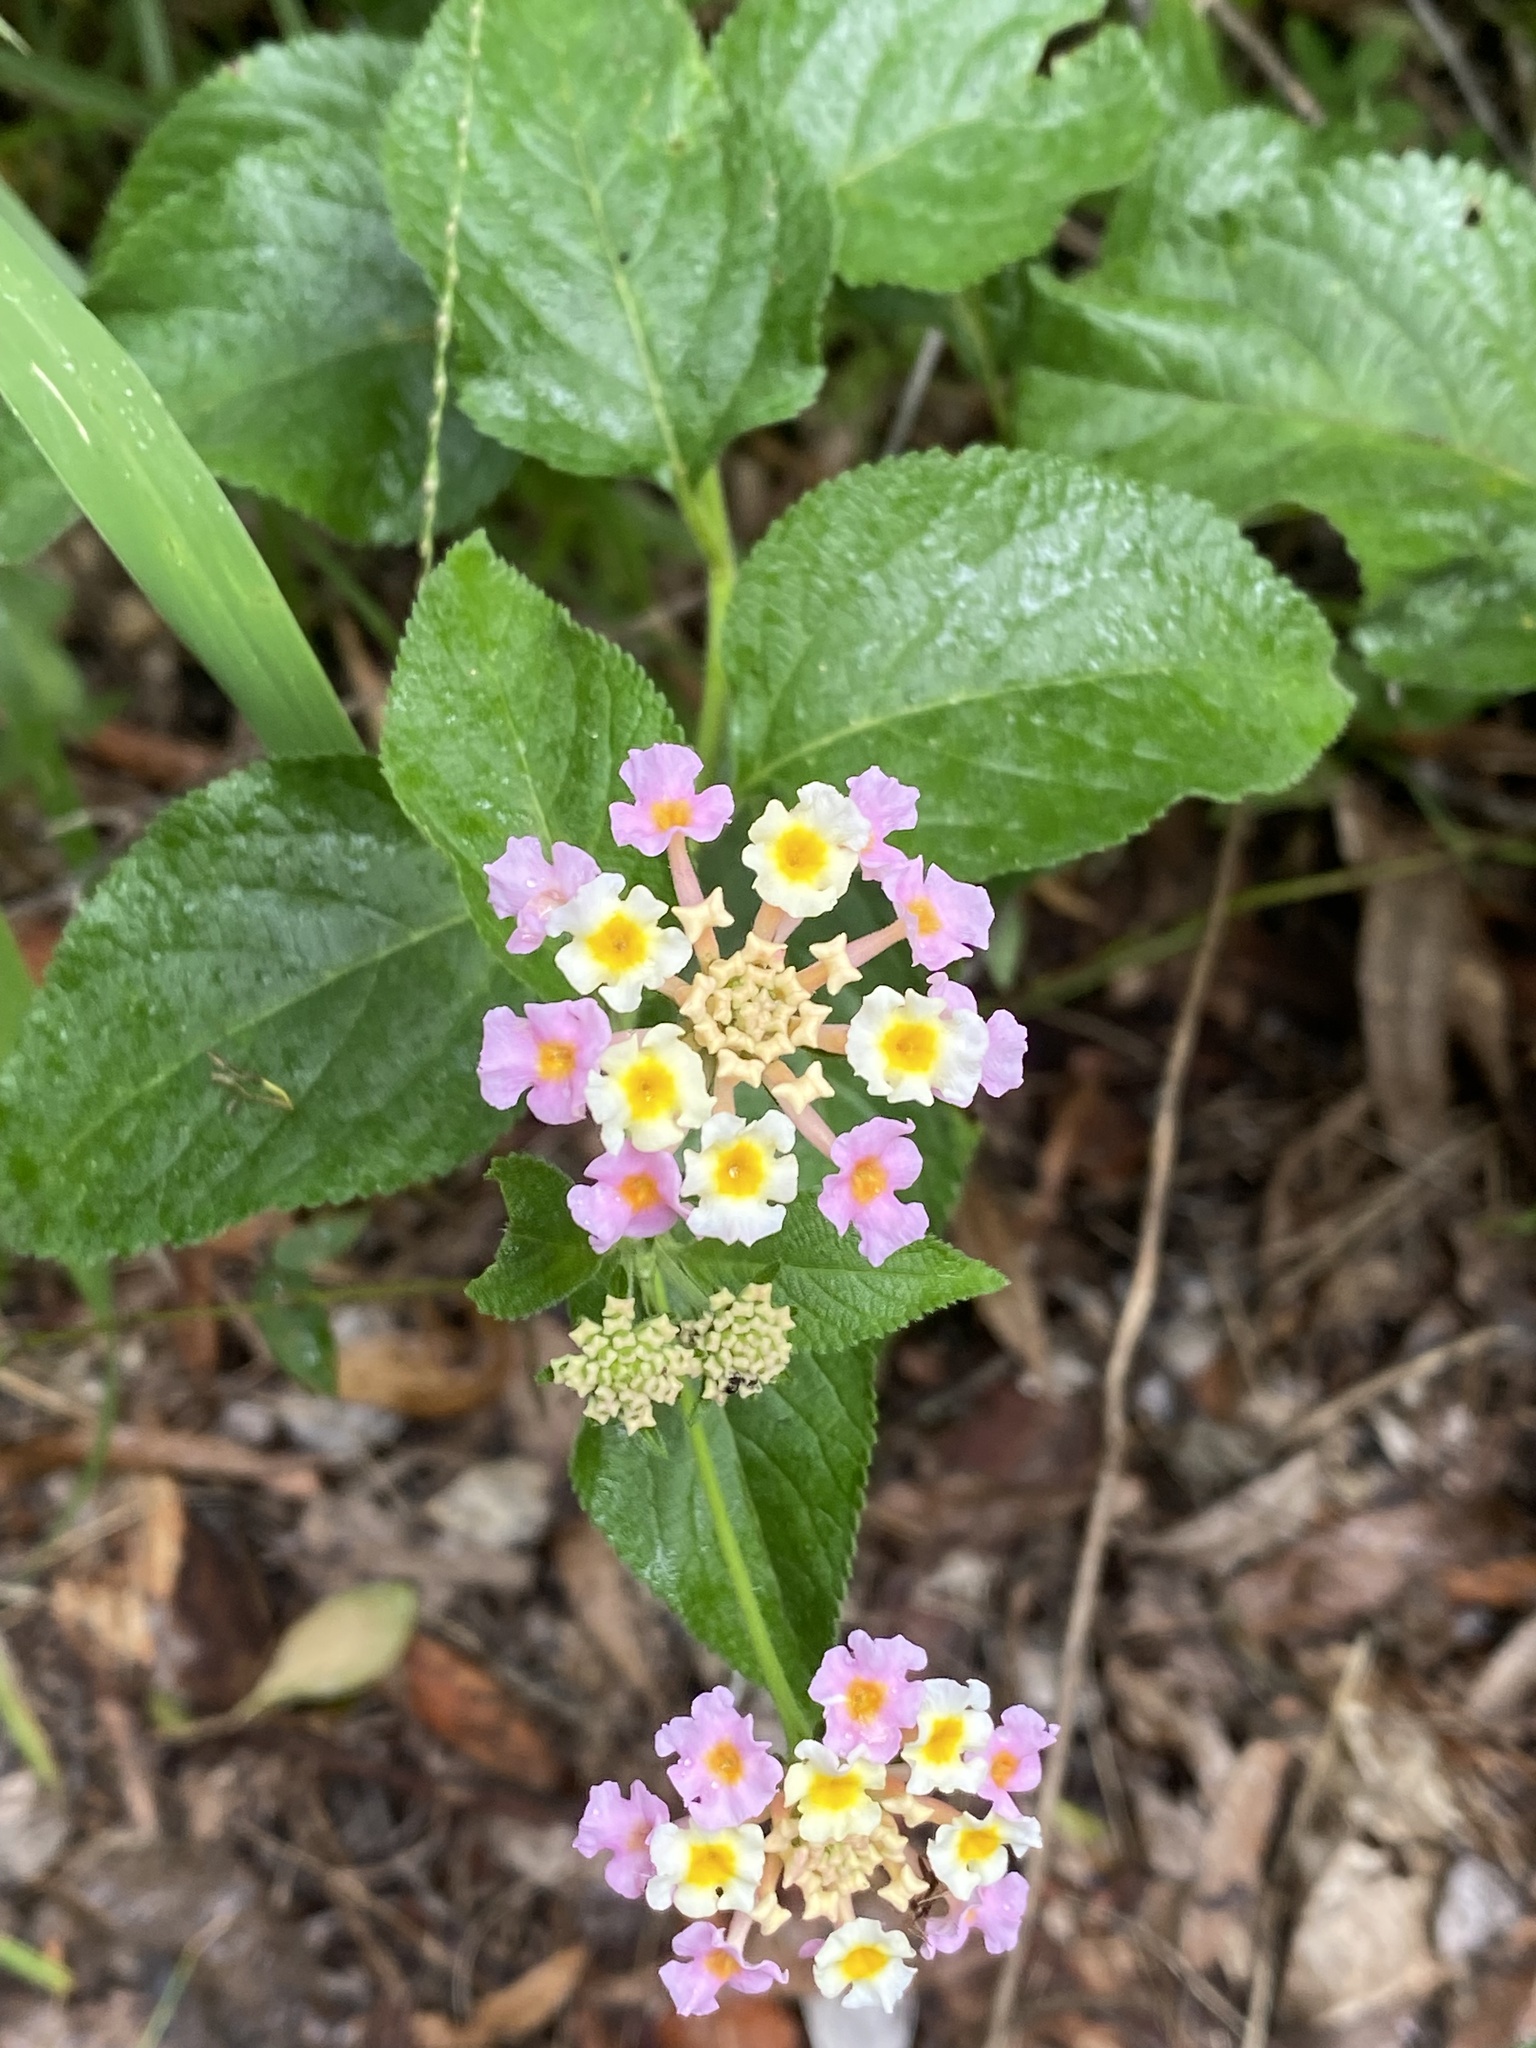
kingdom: Plantae
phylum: Tracheophyta
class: Magnoliopsida
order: Lamiales
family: Verbenaceae
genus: Lantana
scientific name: Lantana camara
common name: Lantana
